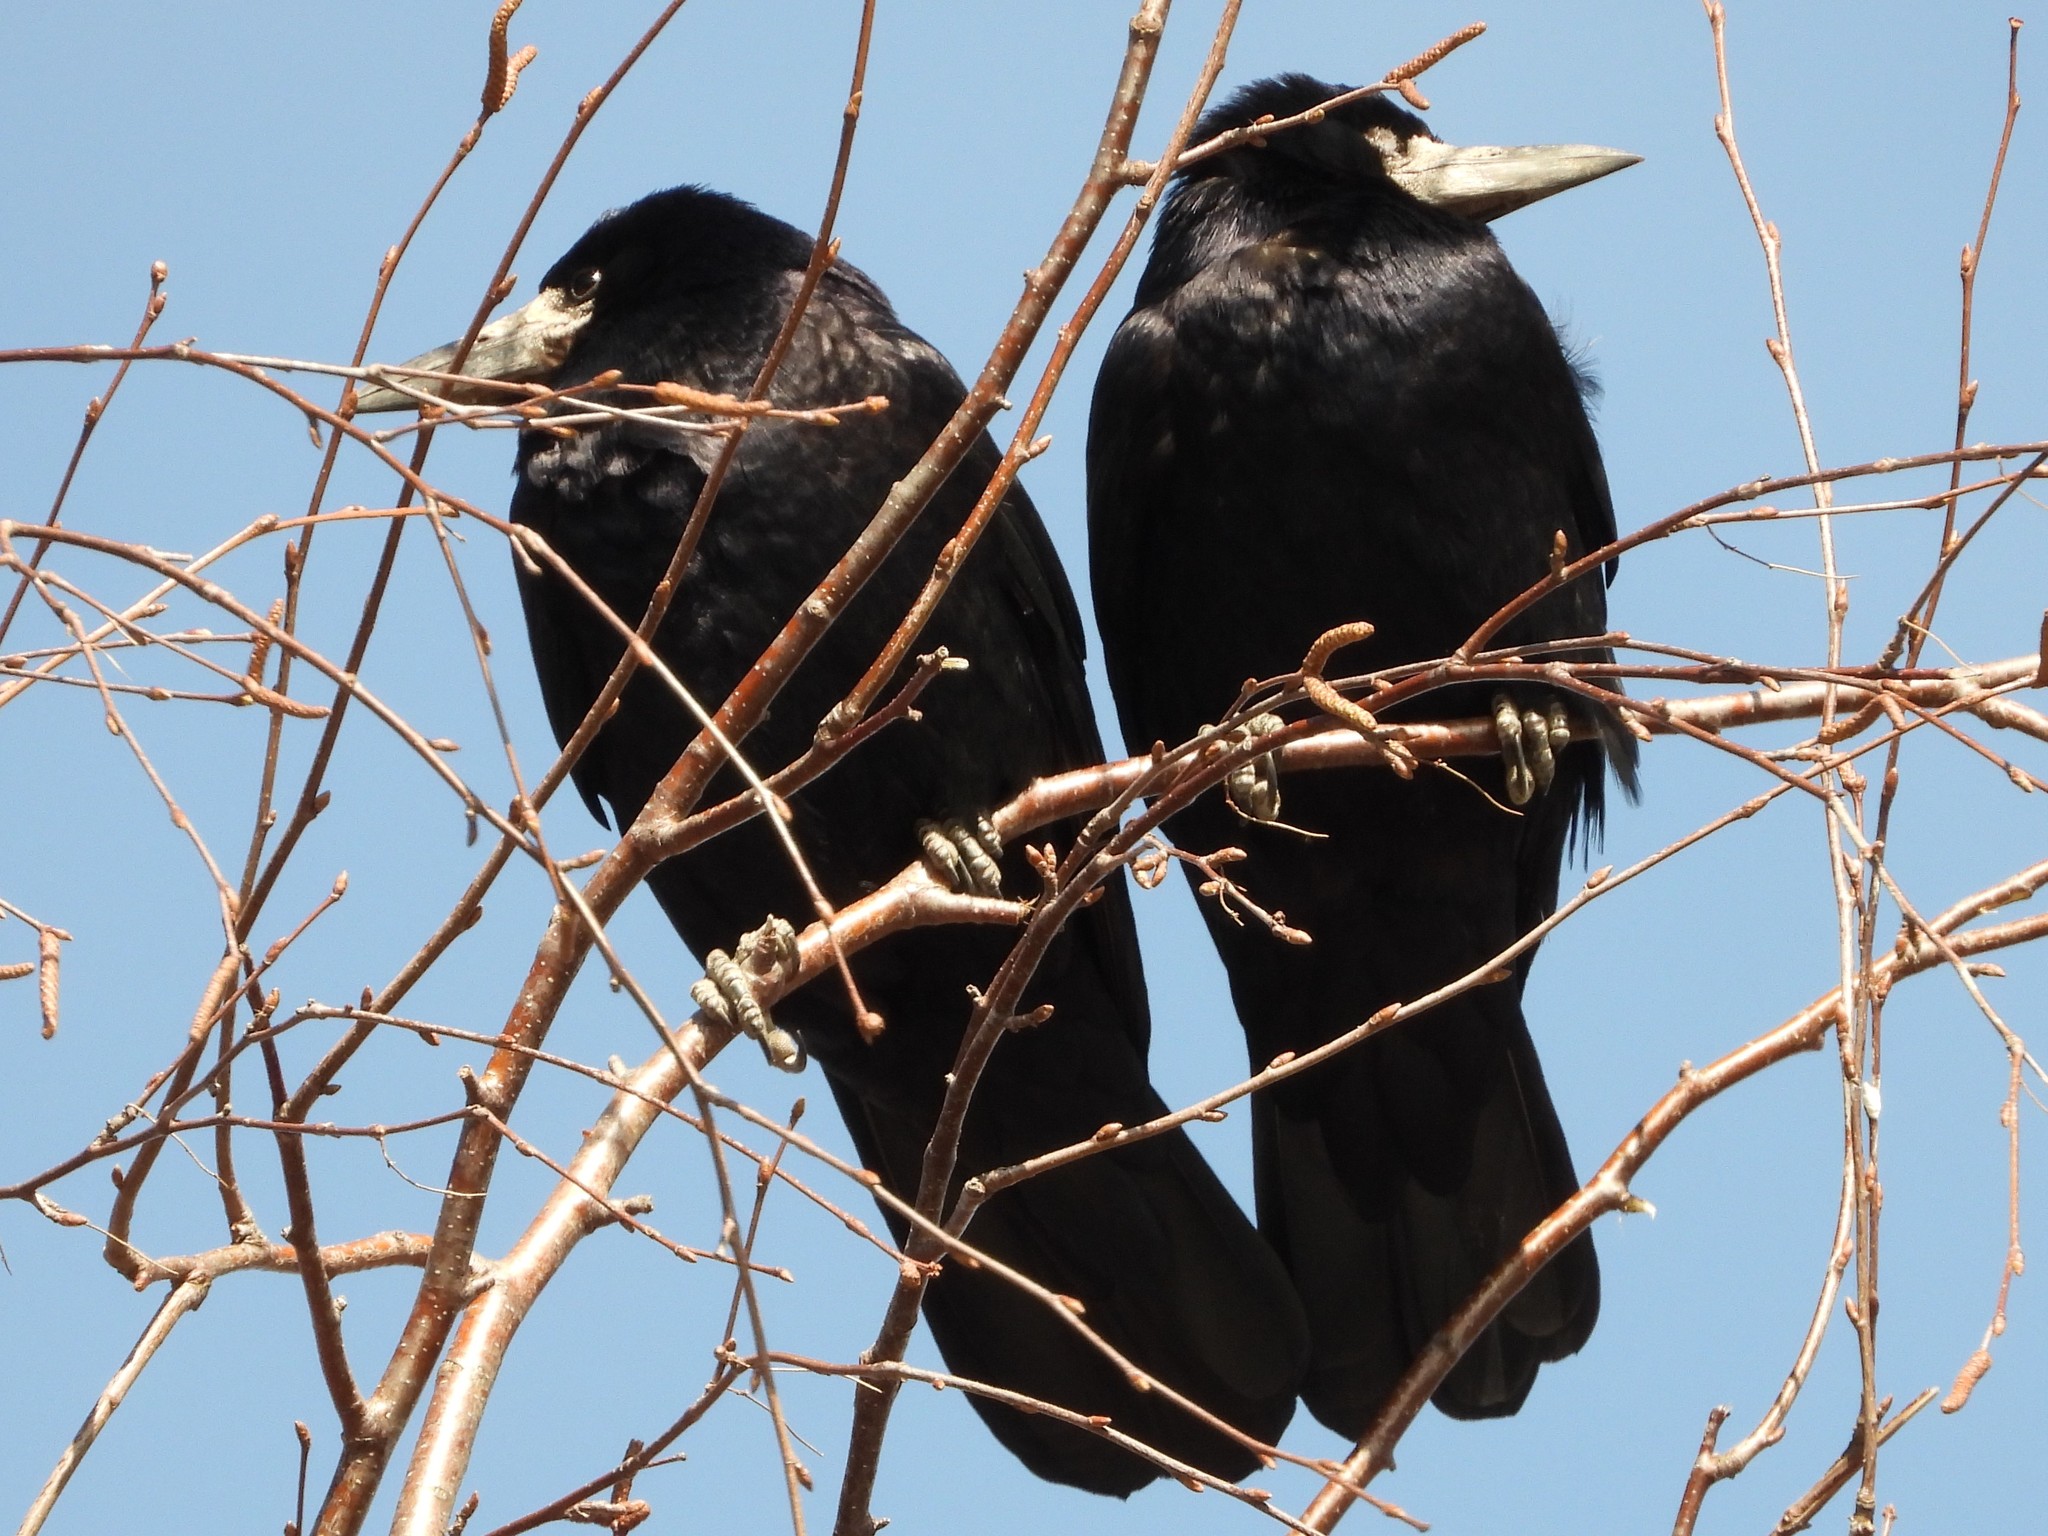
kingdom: Animalia
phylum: Chordata
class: Aves
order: Passeriformes
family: Corvidae
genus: Corvus
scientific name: Corvus frugilegus
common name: Rook
